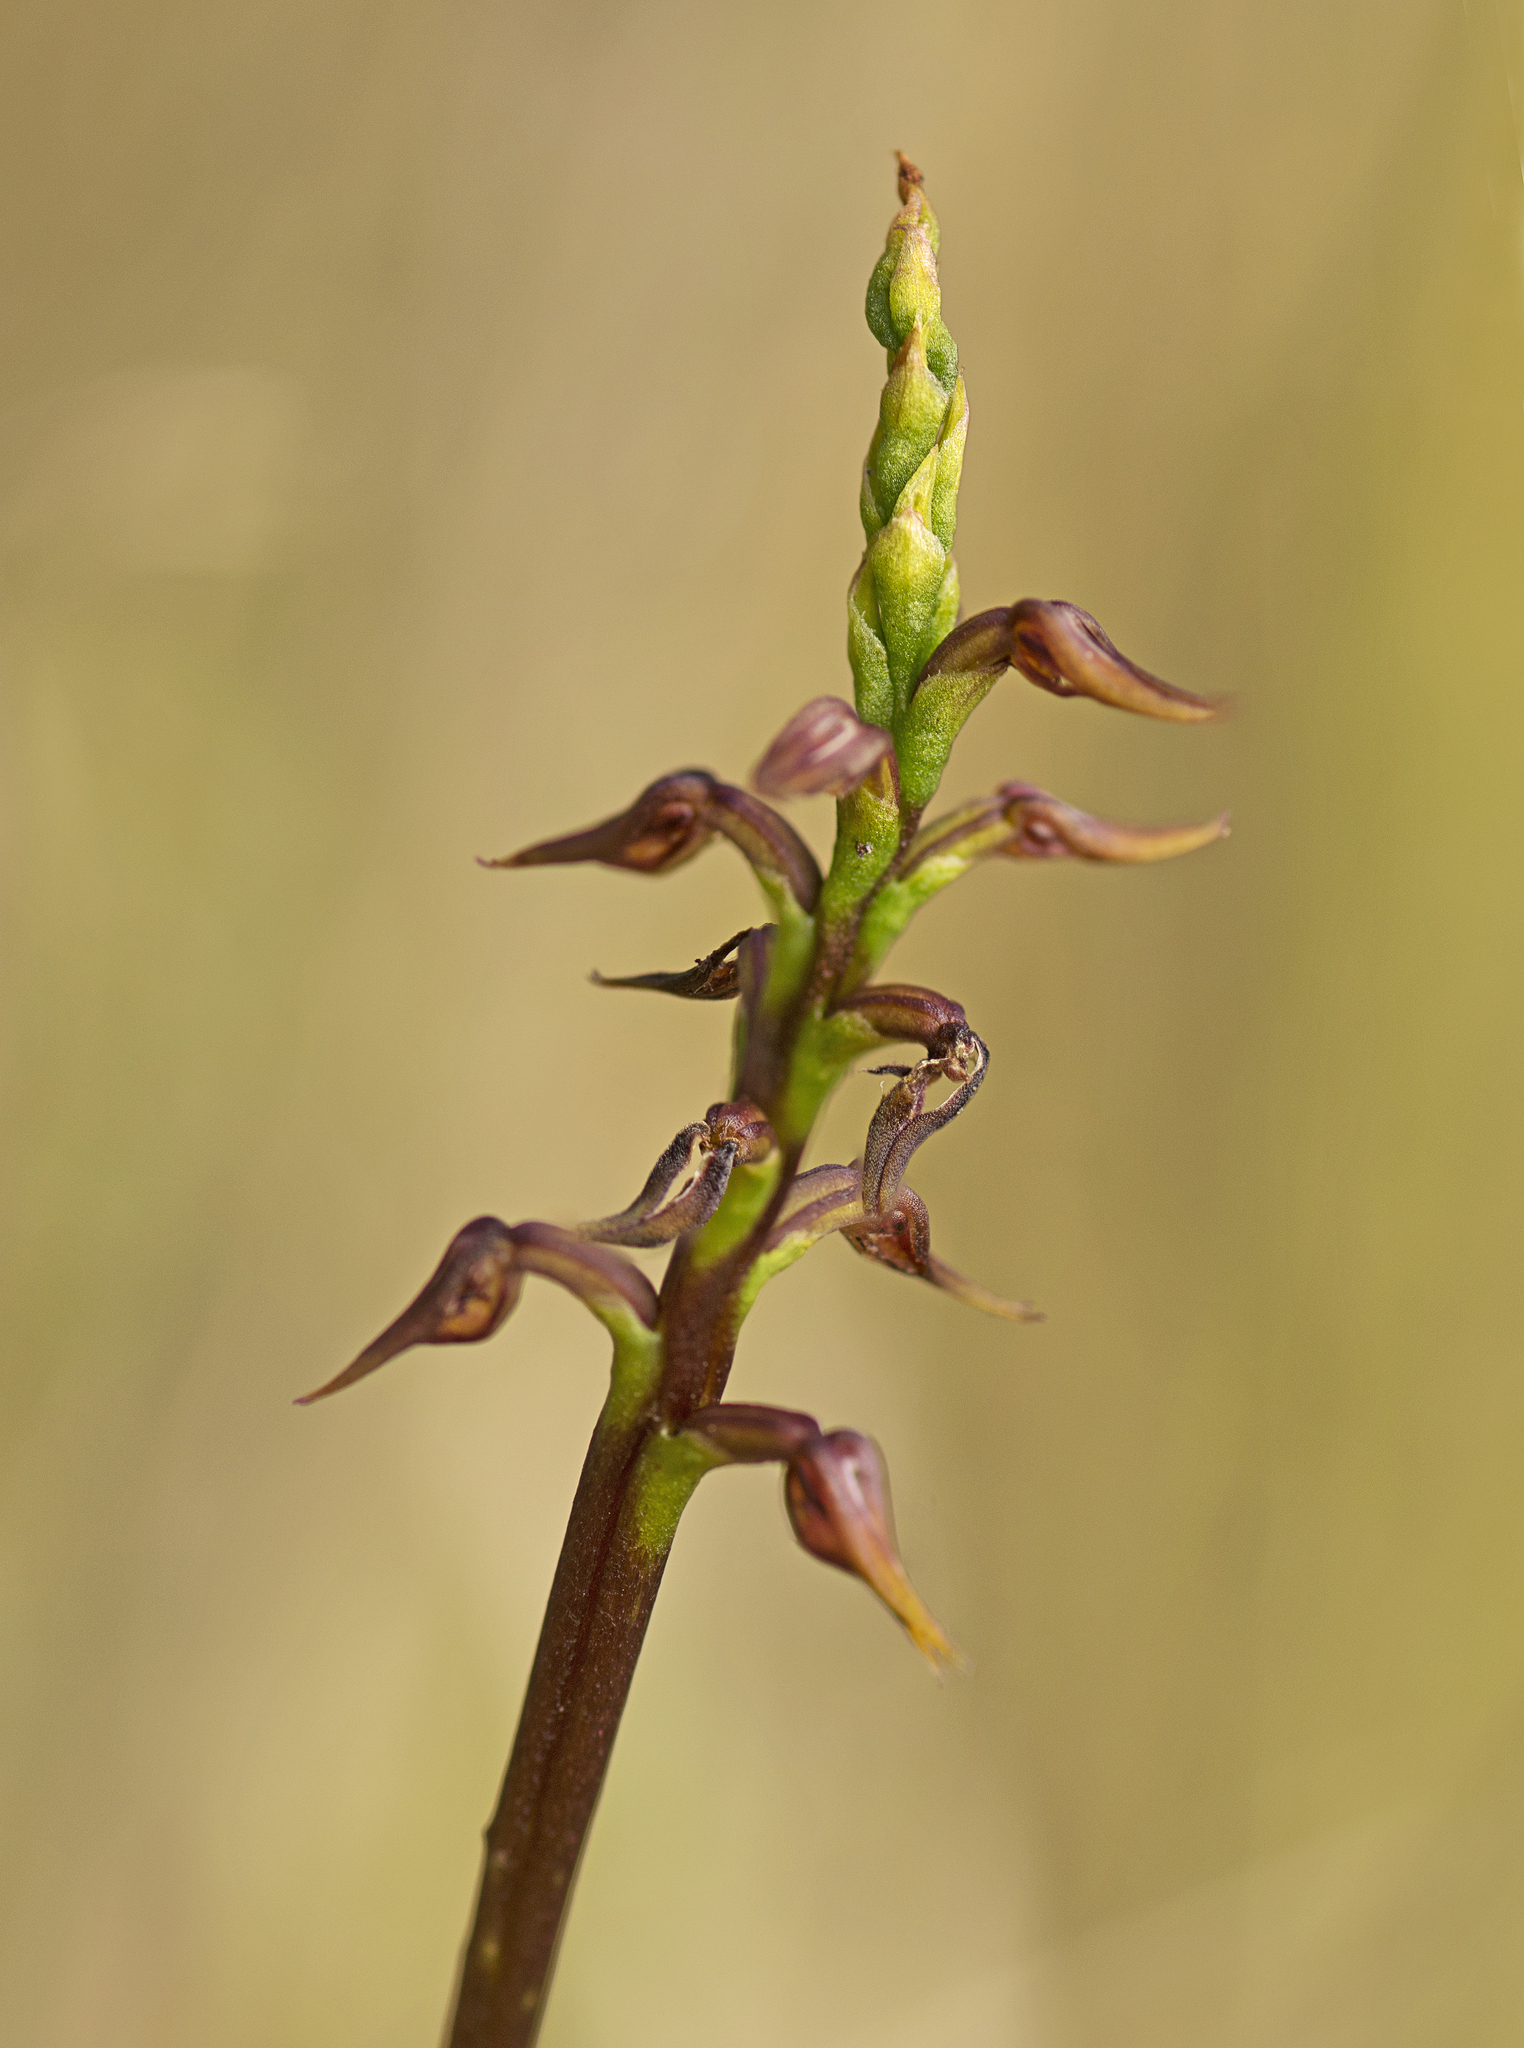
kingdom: Plantae
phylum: Tracheophyta
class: Liliopsida
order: Asparagales
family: Orchidaceae
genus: Genoplesium
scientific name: Genoplesium acuminatum
